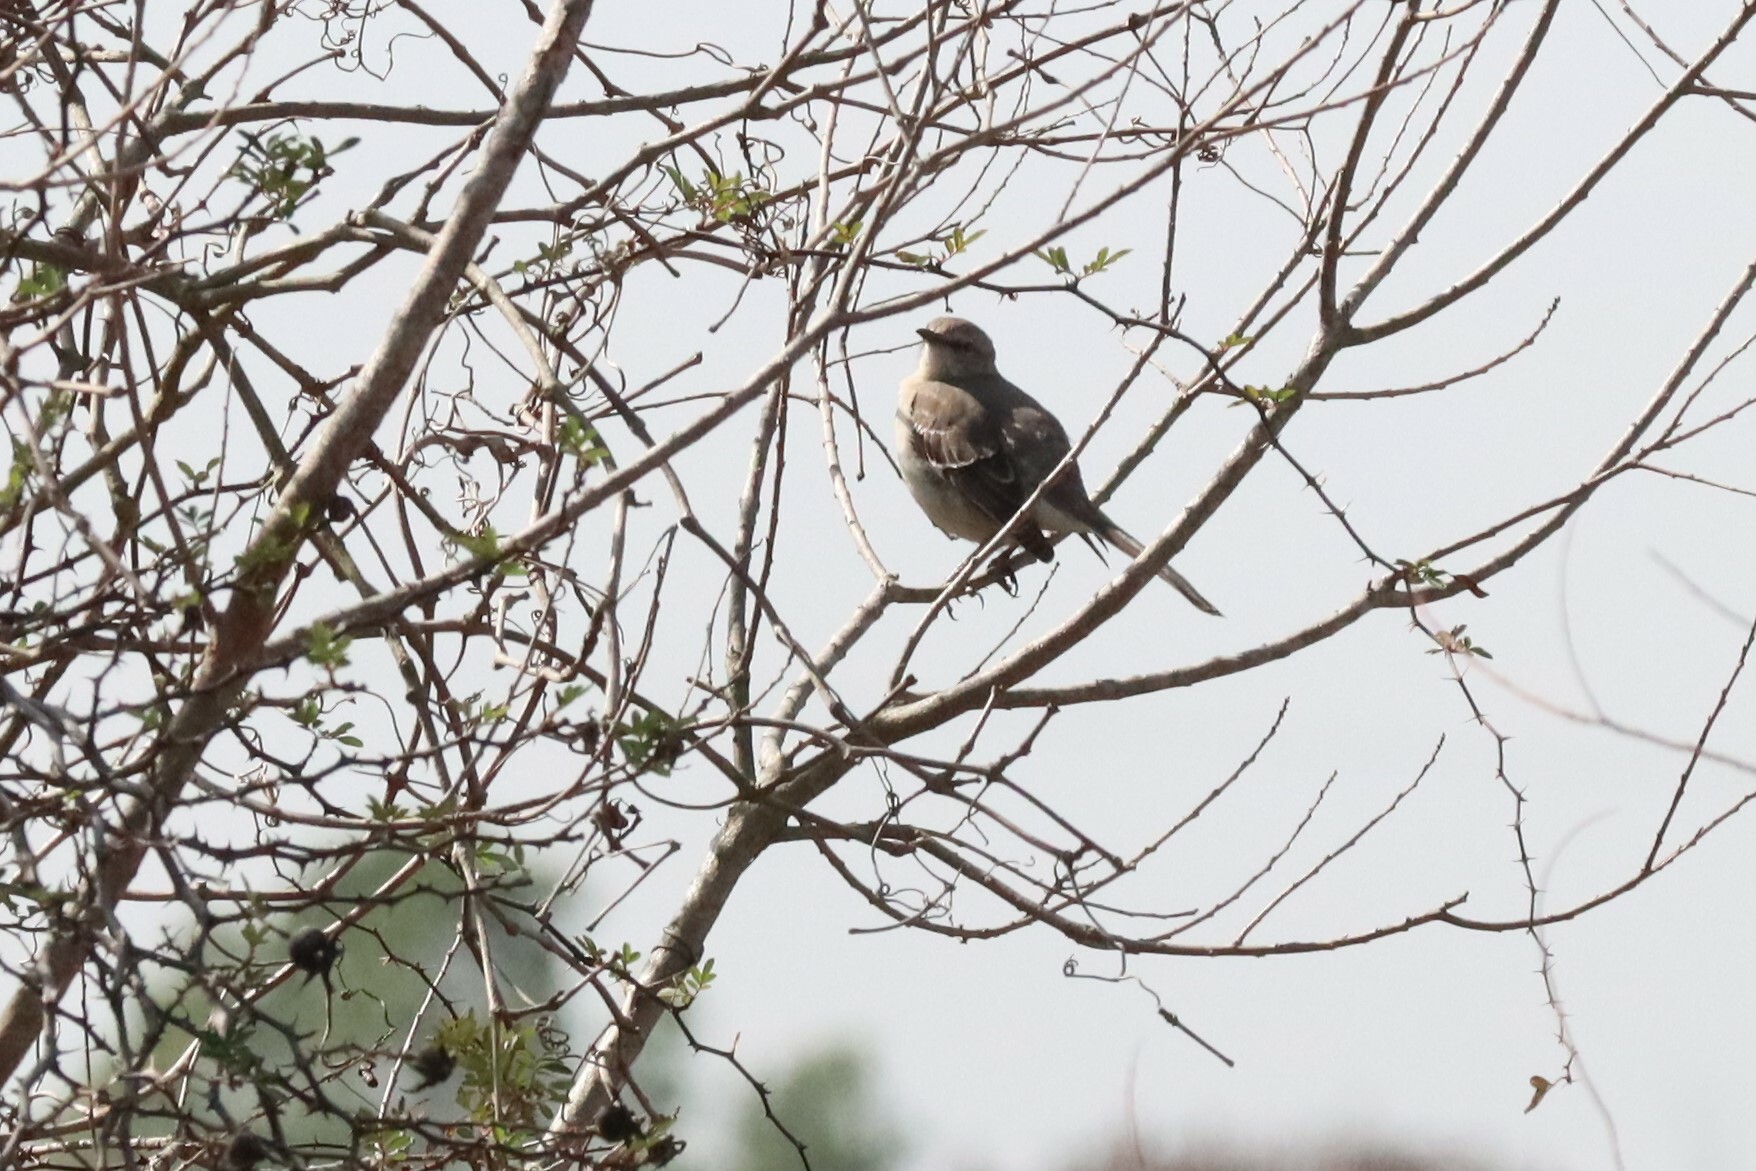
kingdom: Animalia
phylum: Chordata
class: Aves
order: Passeriformes
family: Mimidae
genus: Mimus
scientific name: Mimus polyglottos
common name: Northern mockingbird
